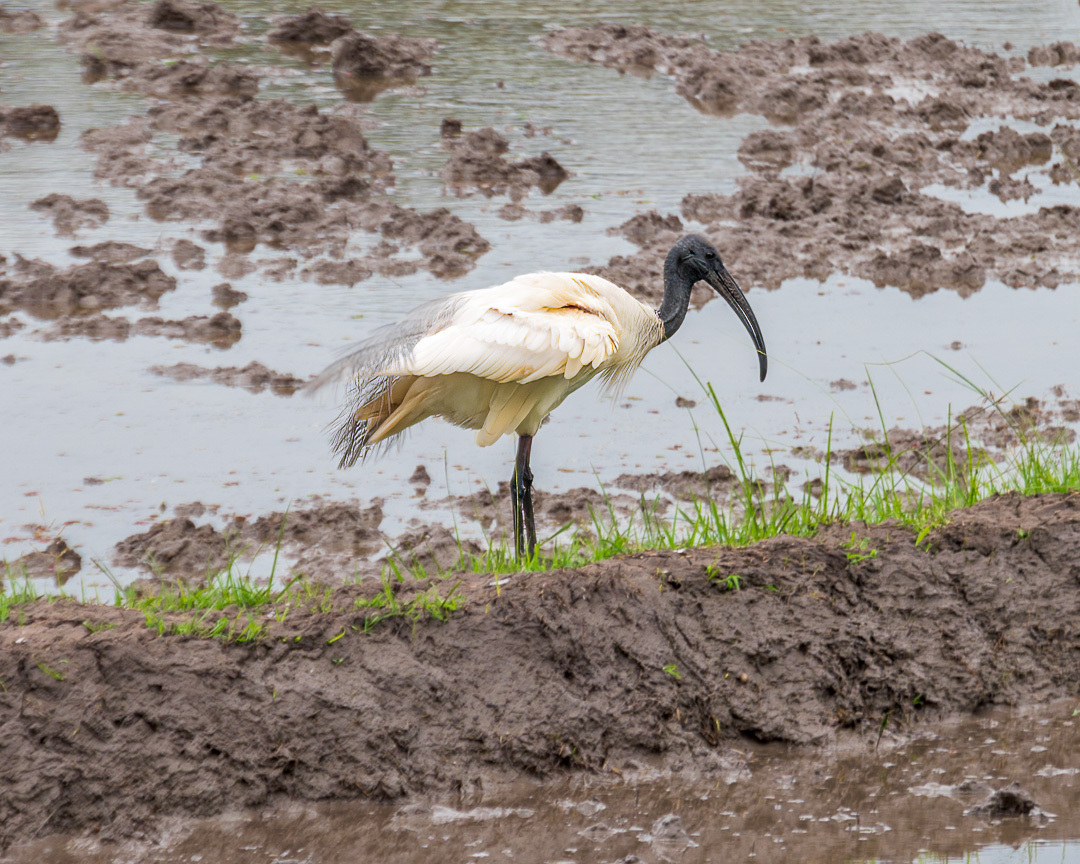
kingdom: Animalia
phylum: Chordata
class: Aves
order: Pelecaniformes
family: Threskiornithidae
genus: Threskiornis
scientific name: Threskiornis melanocephalus
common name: Black-headed ibis
